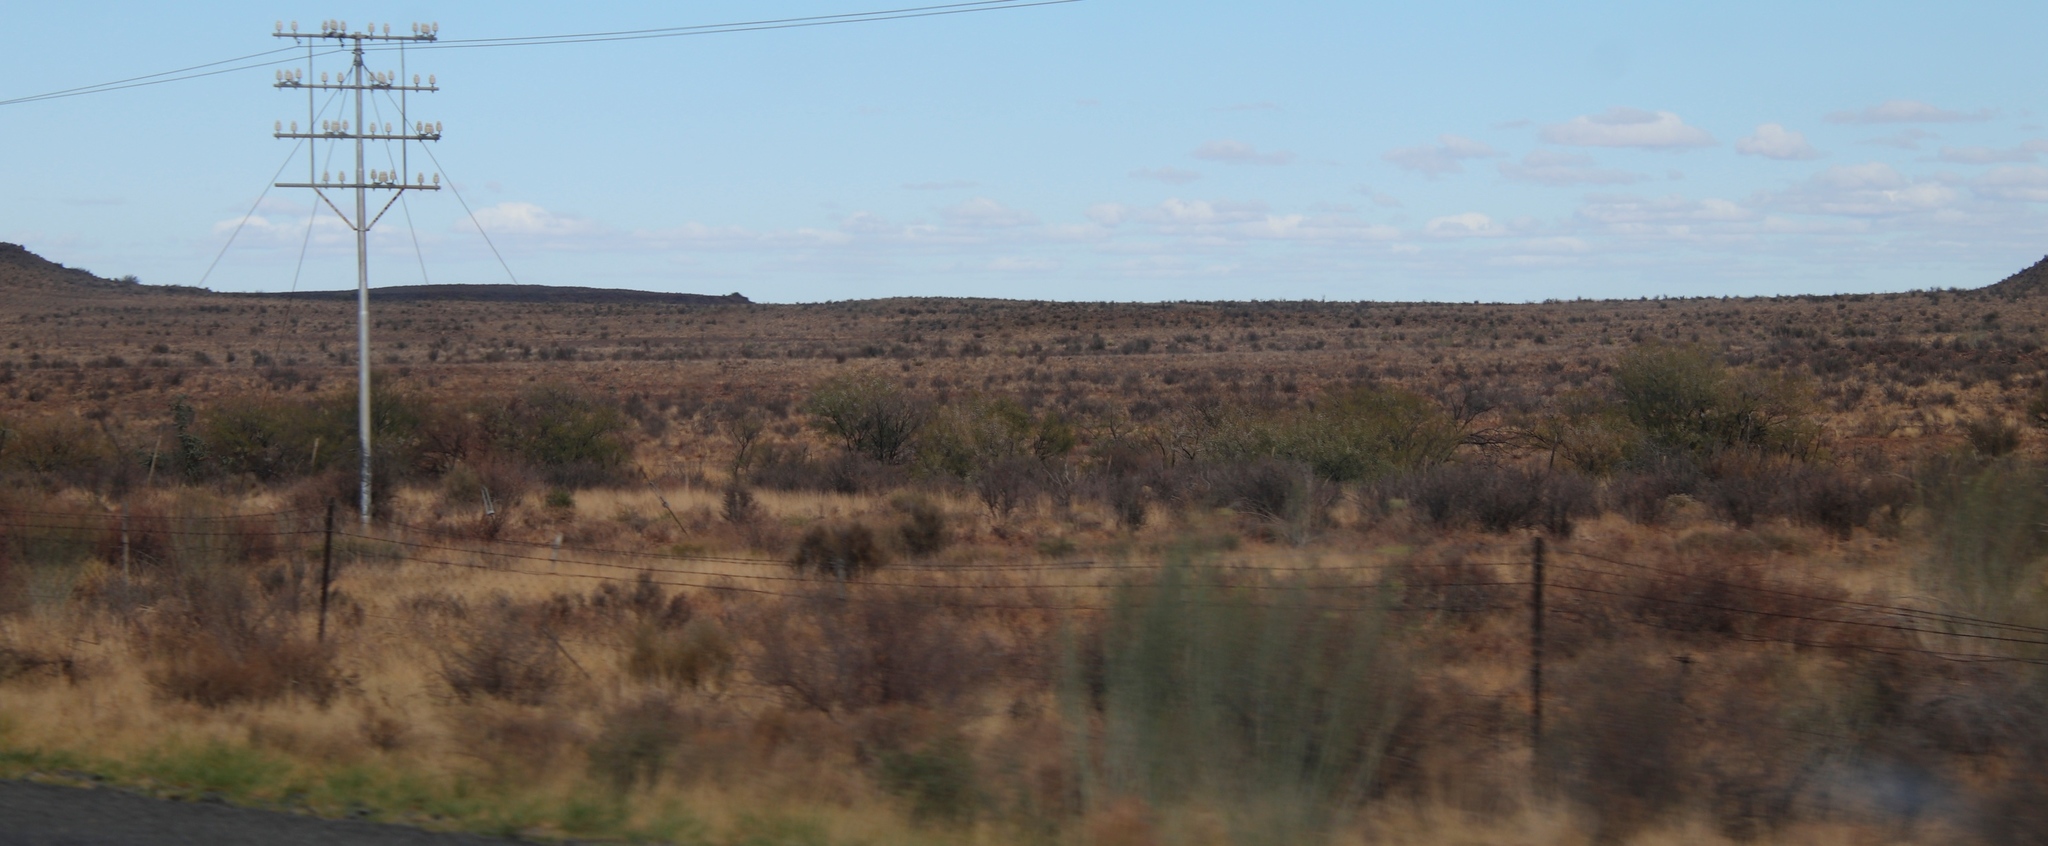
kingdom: Plantae
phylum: Tracheophyta
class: Magnoliopsida
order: Gentianales
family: Apocynaceae
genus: Gomphocarpus
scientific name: Gomphocarpus filiformis
